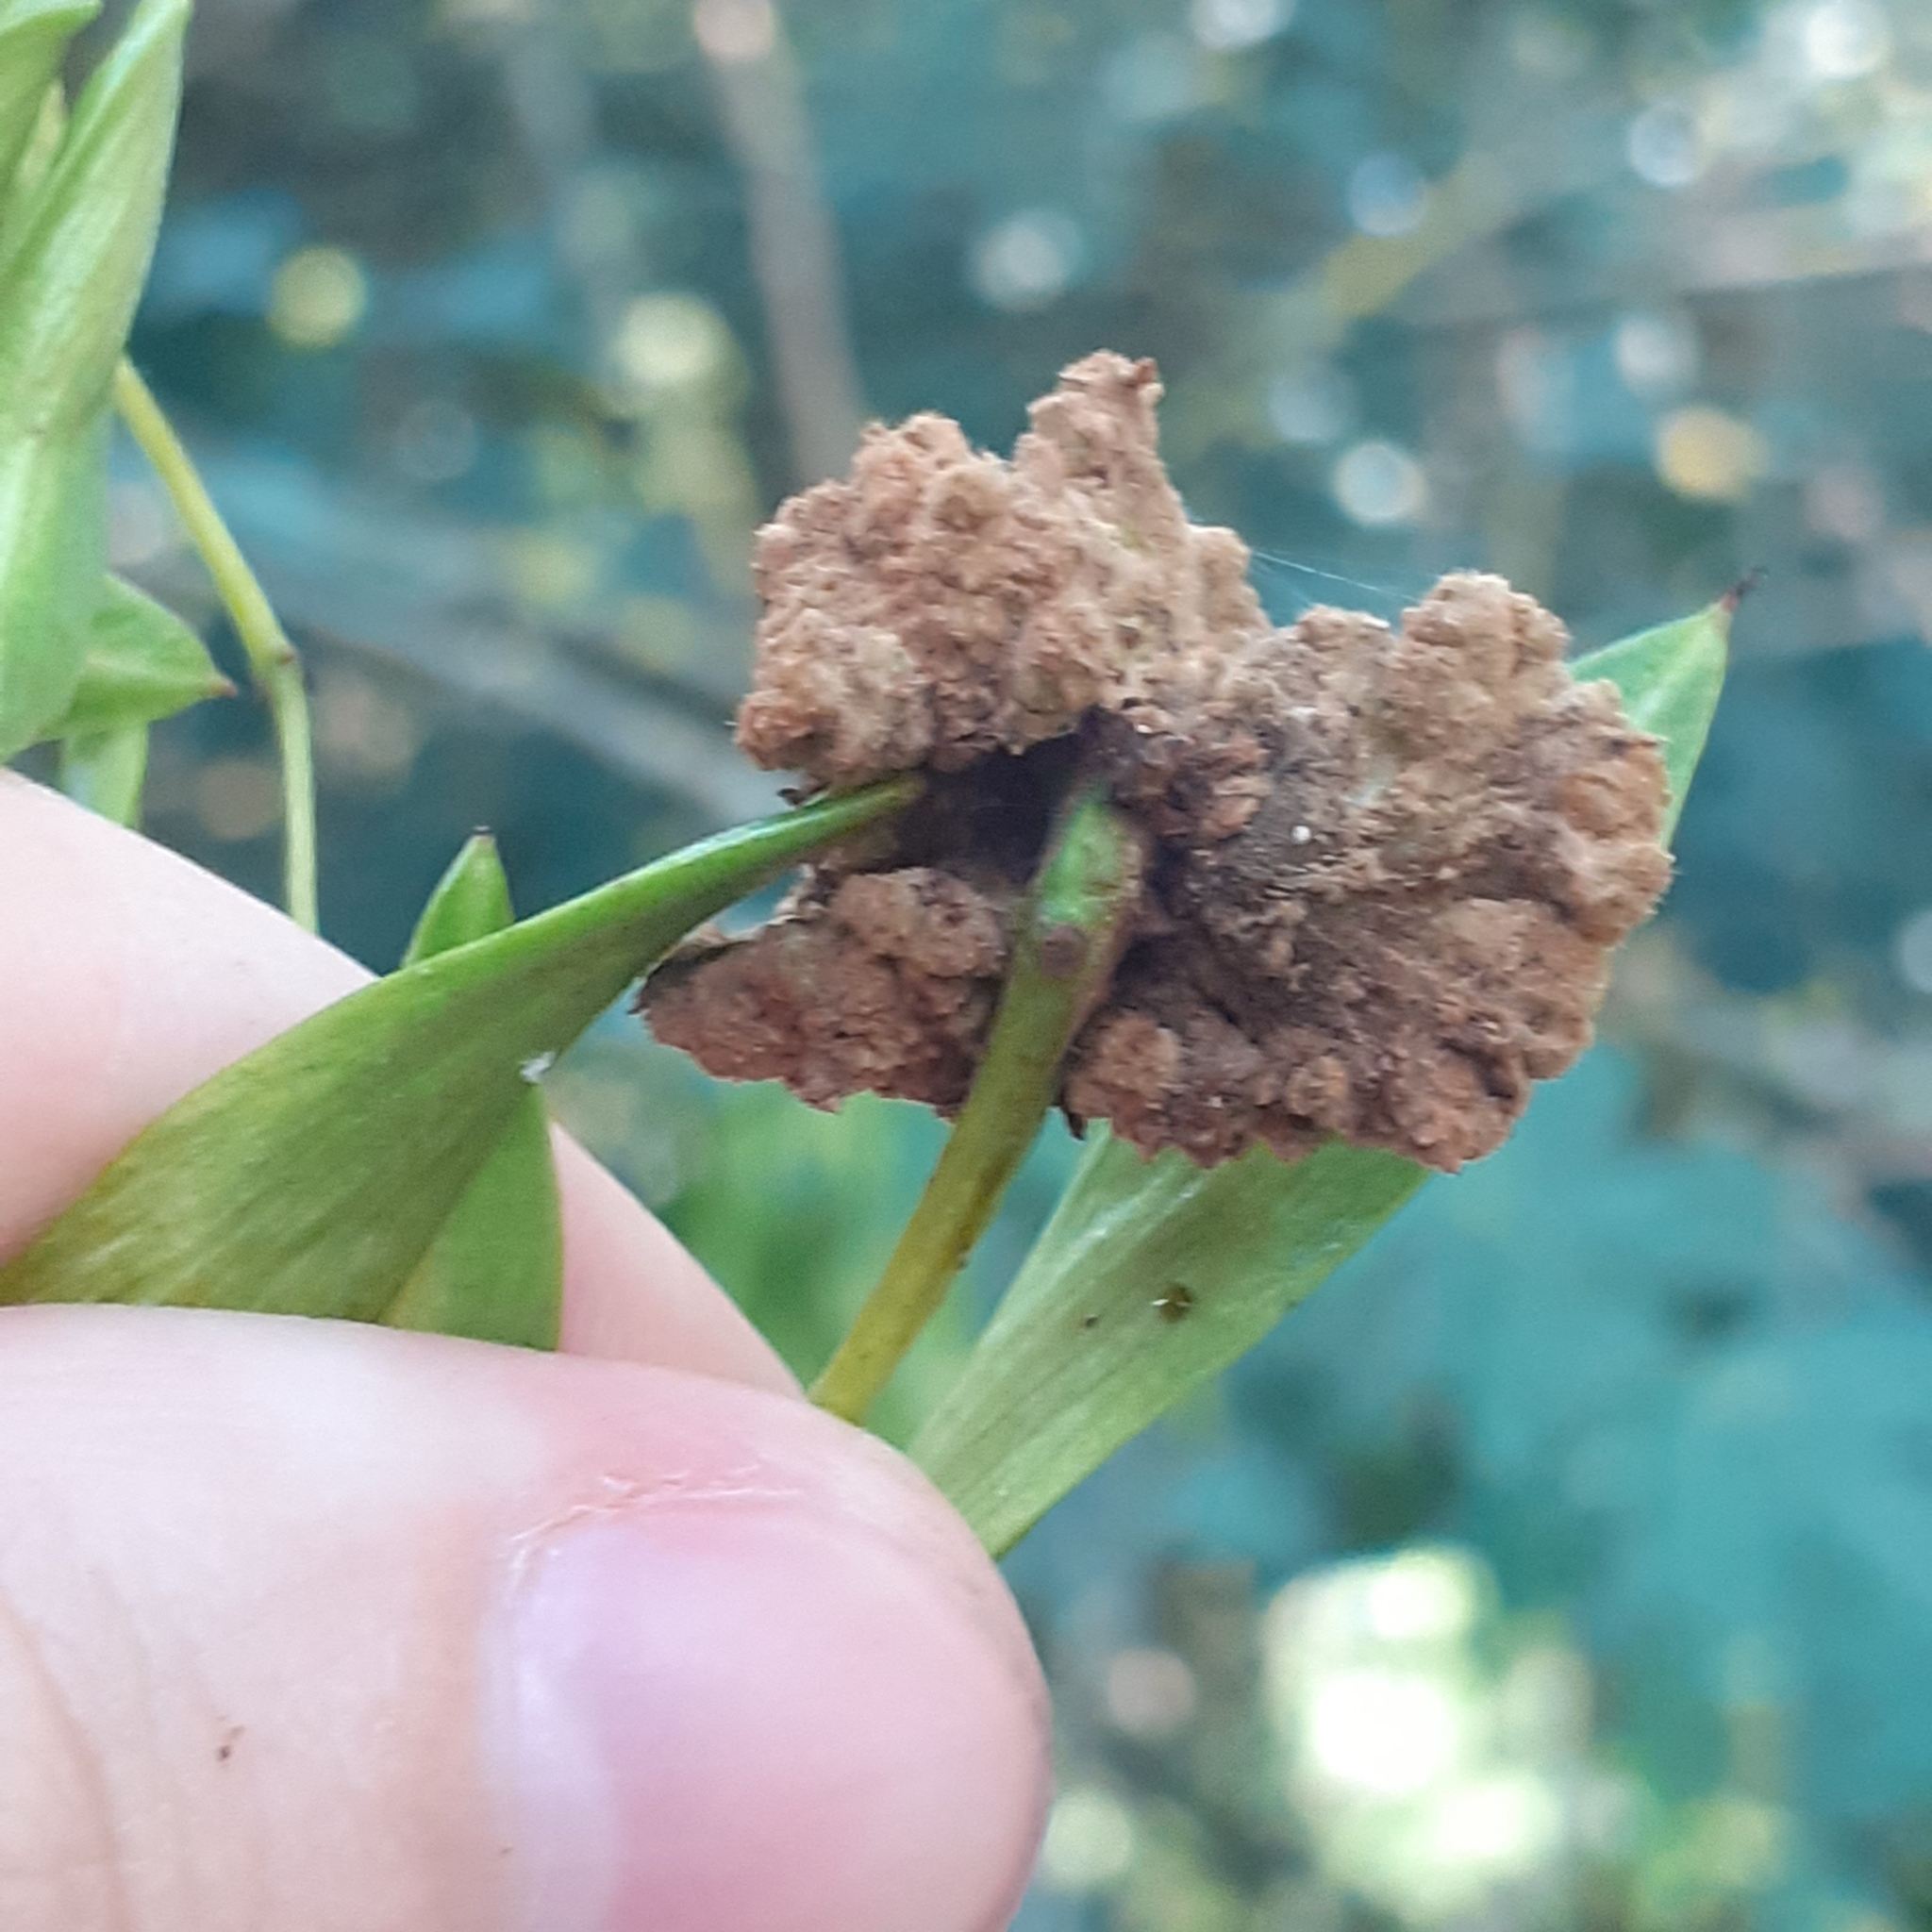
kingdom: Animalia
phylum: Arthropoda
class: Arachnida
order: Trombidiformes
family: Eriophyidae
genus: Aceria
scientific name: Aceria fraxinivora
